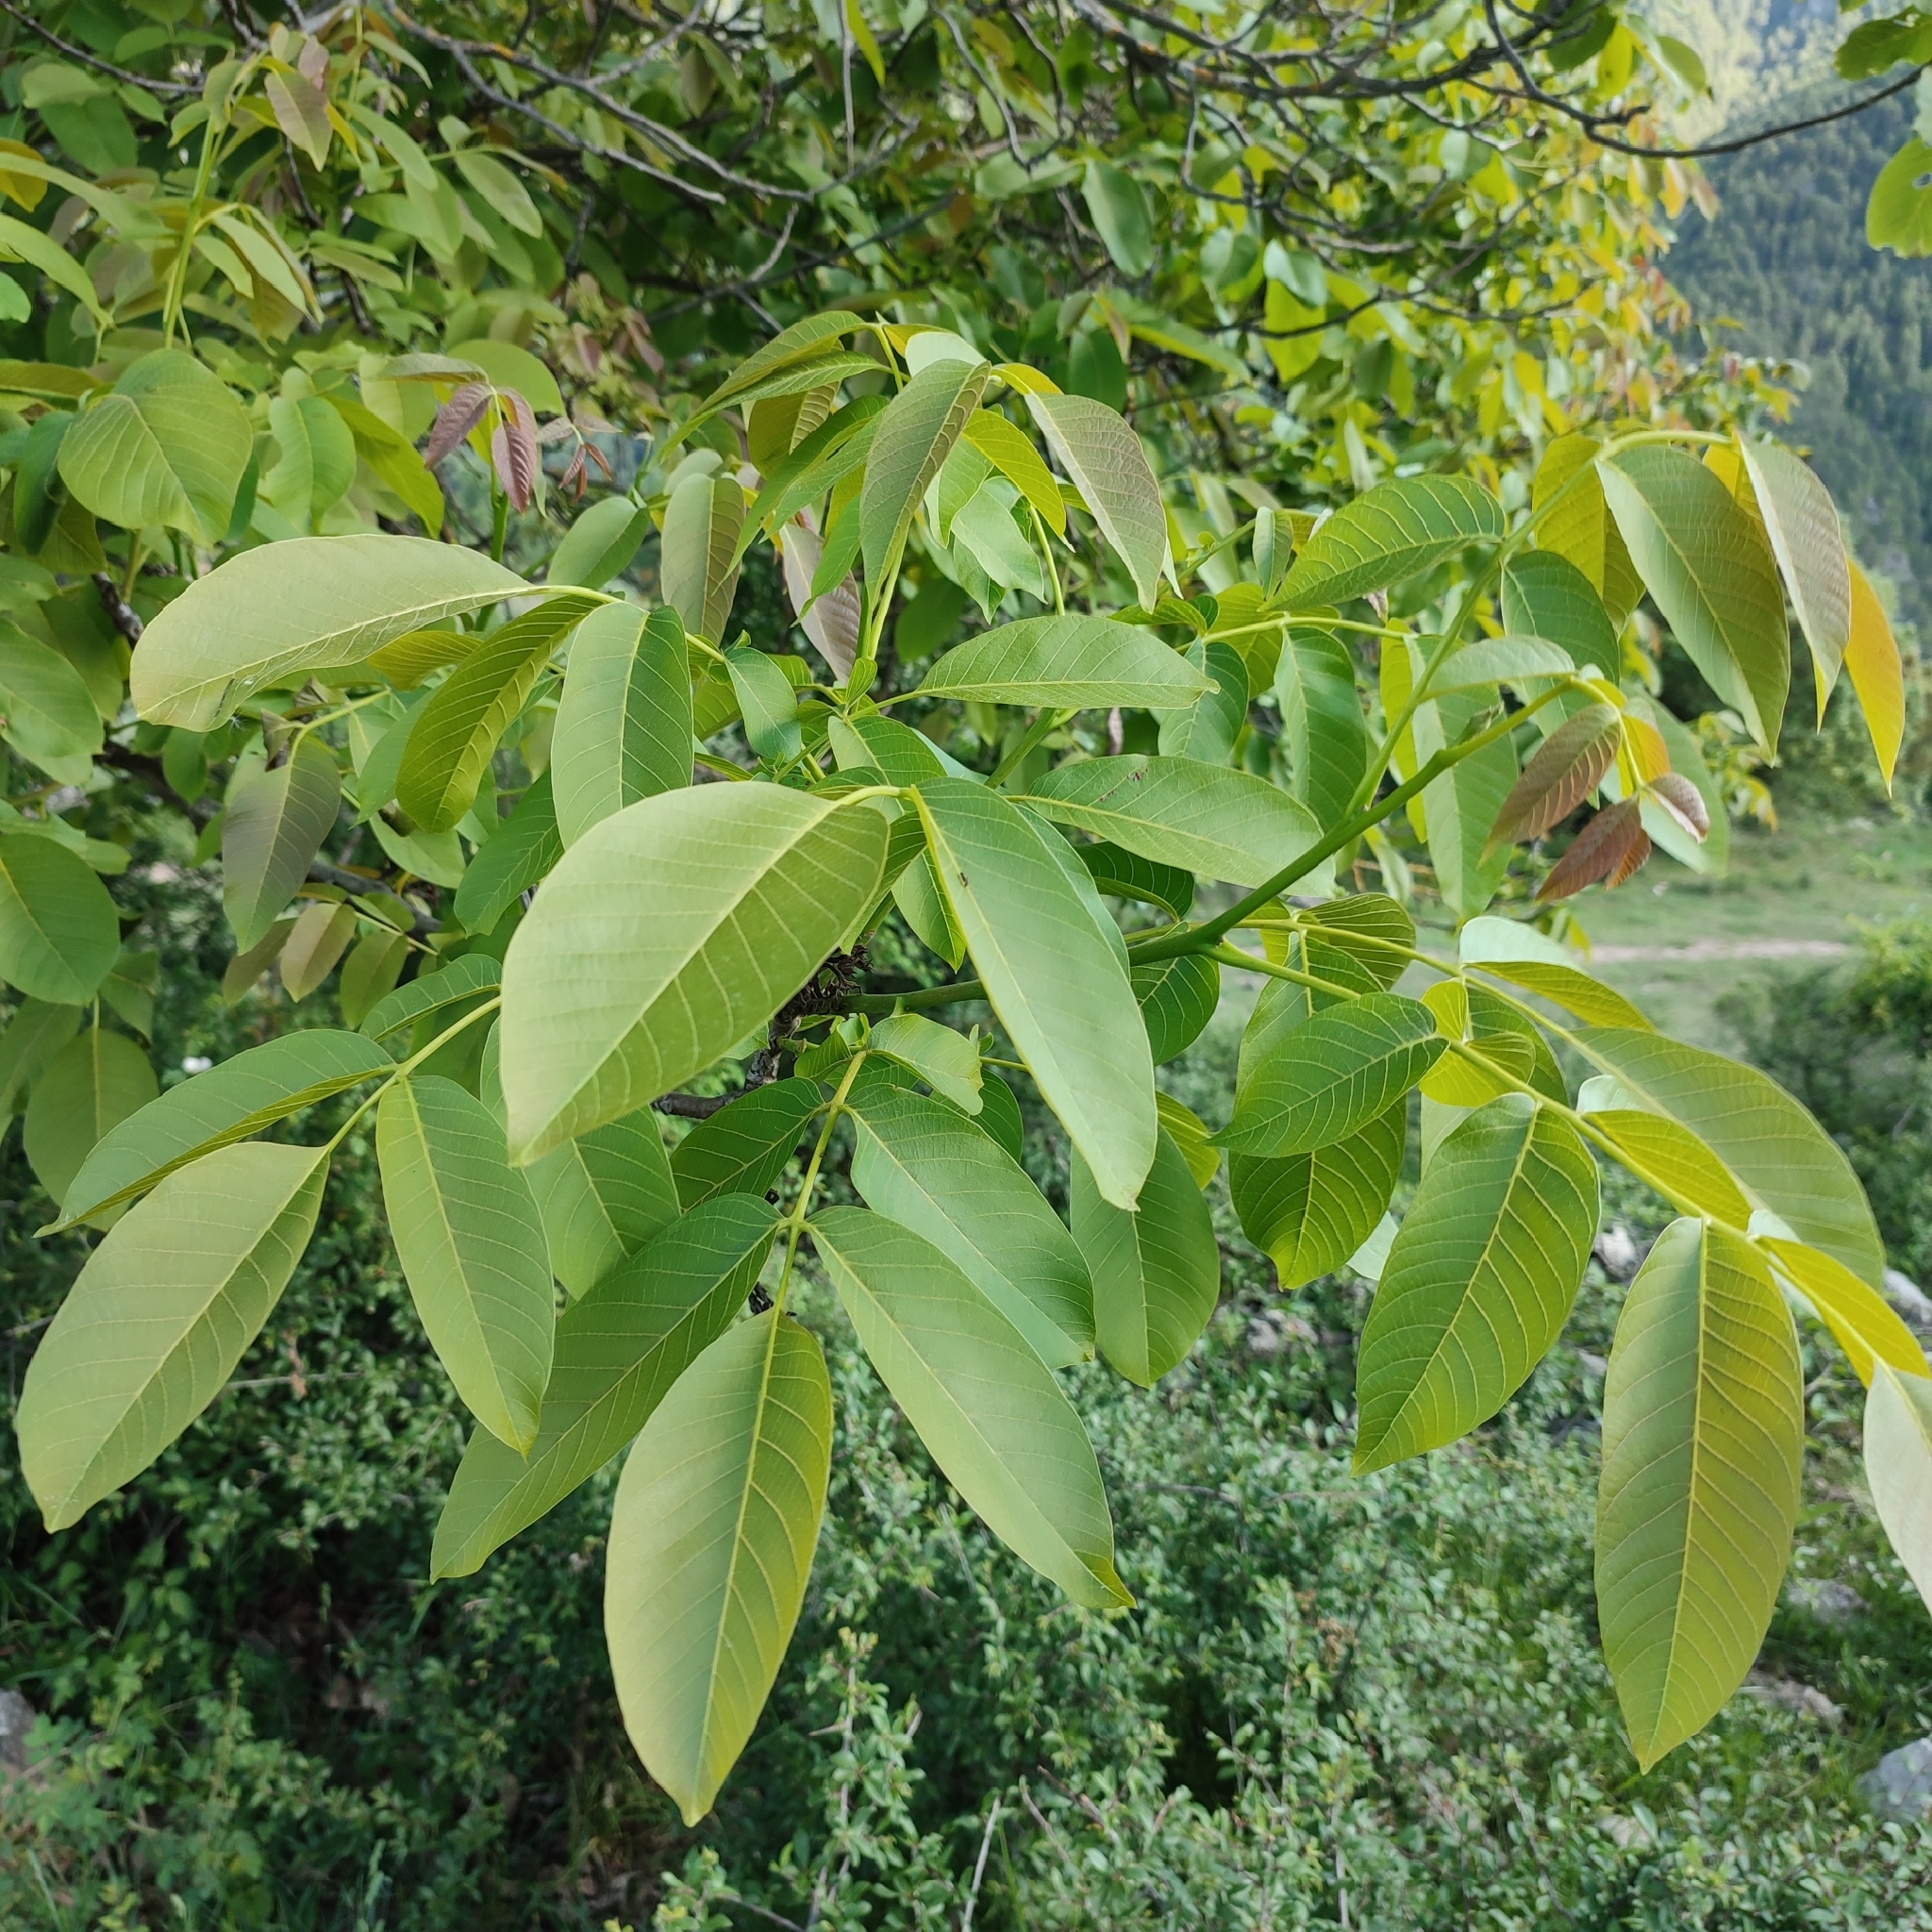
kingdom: Plantae
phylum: Tracheophyta
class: Magnoliopsida
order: Fagales
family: Juglandaceae
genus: Juglans
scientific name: Juglans regia
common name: Walnut
